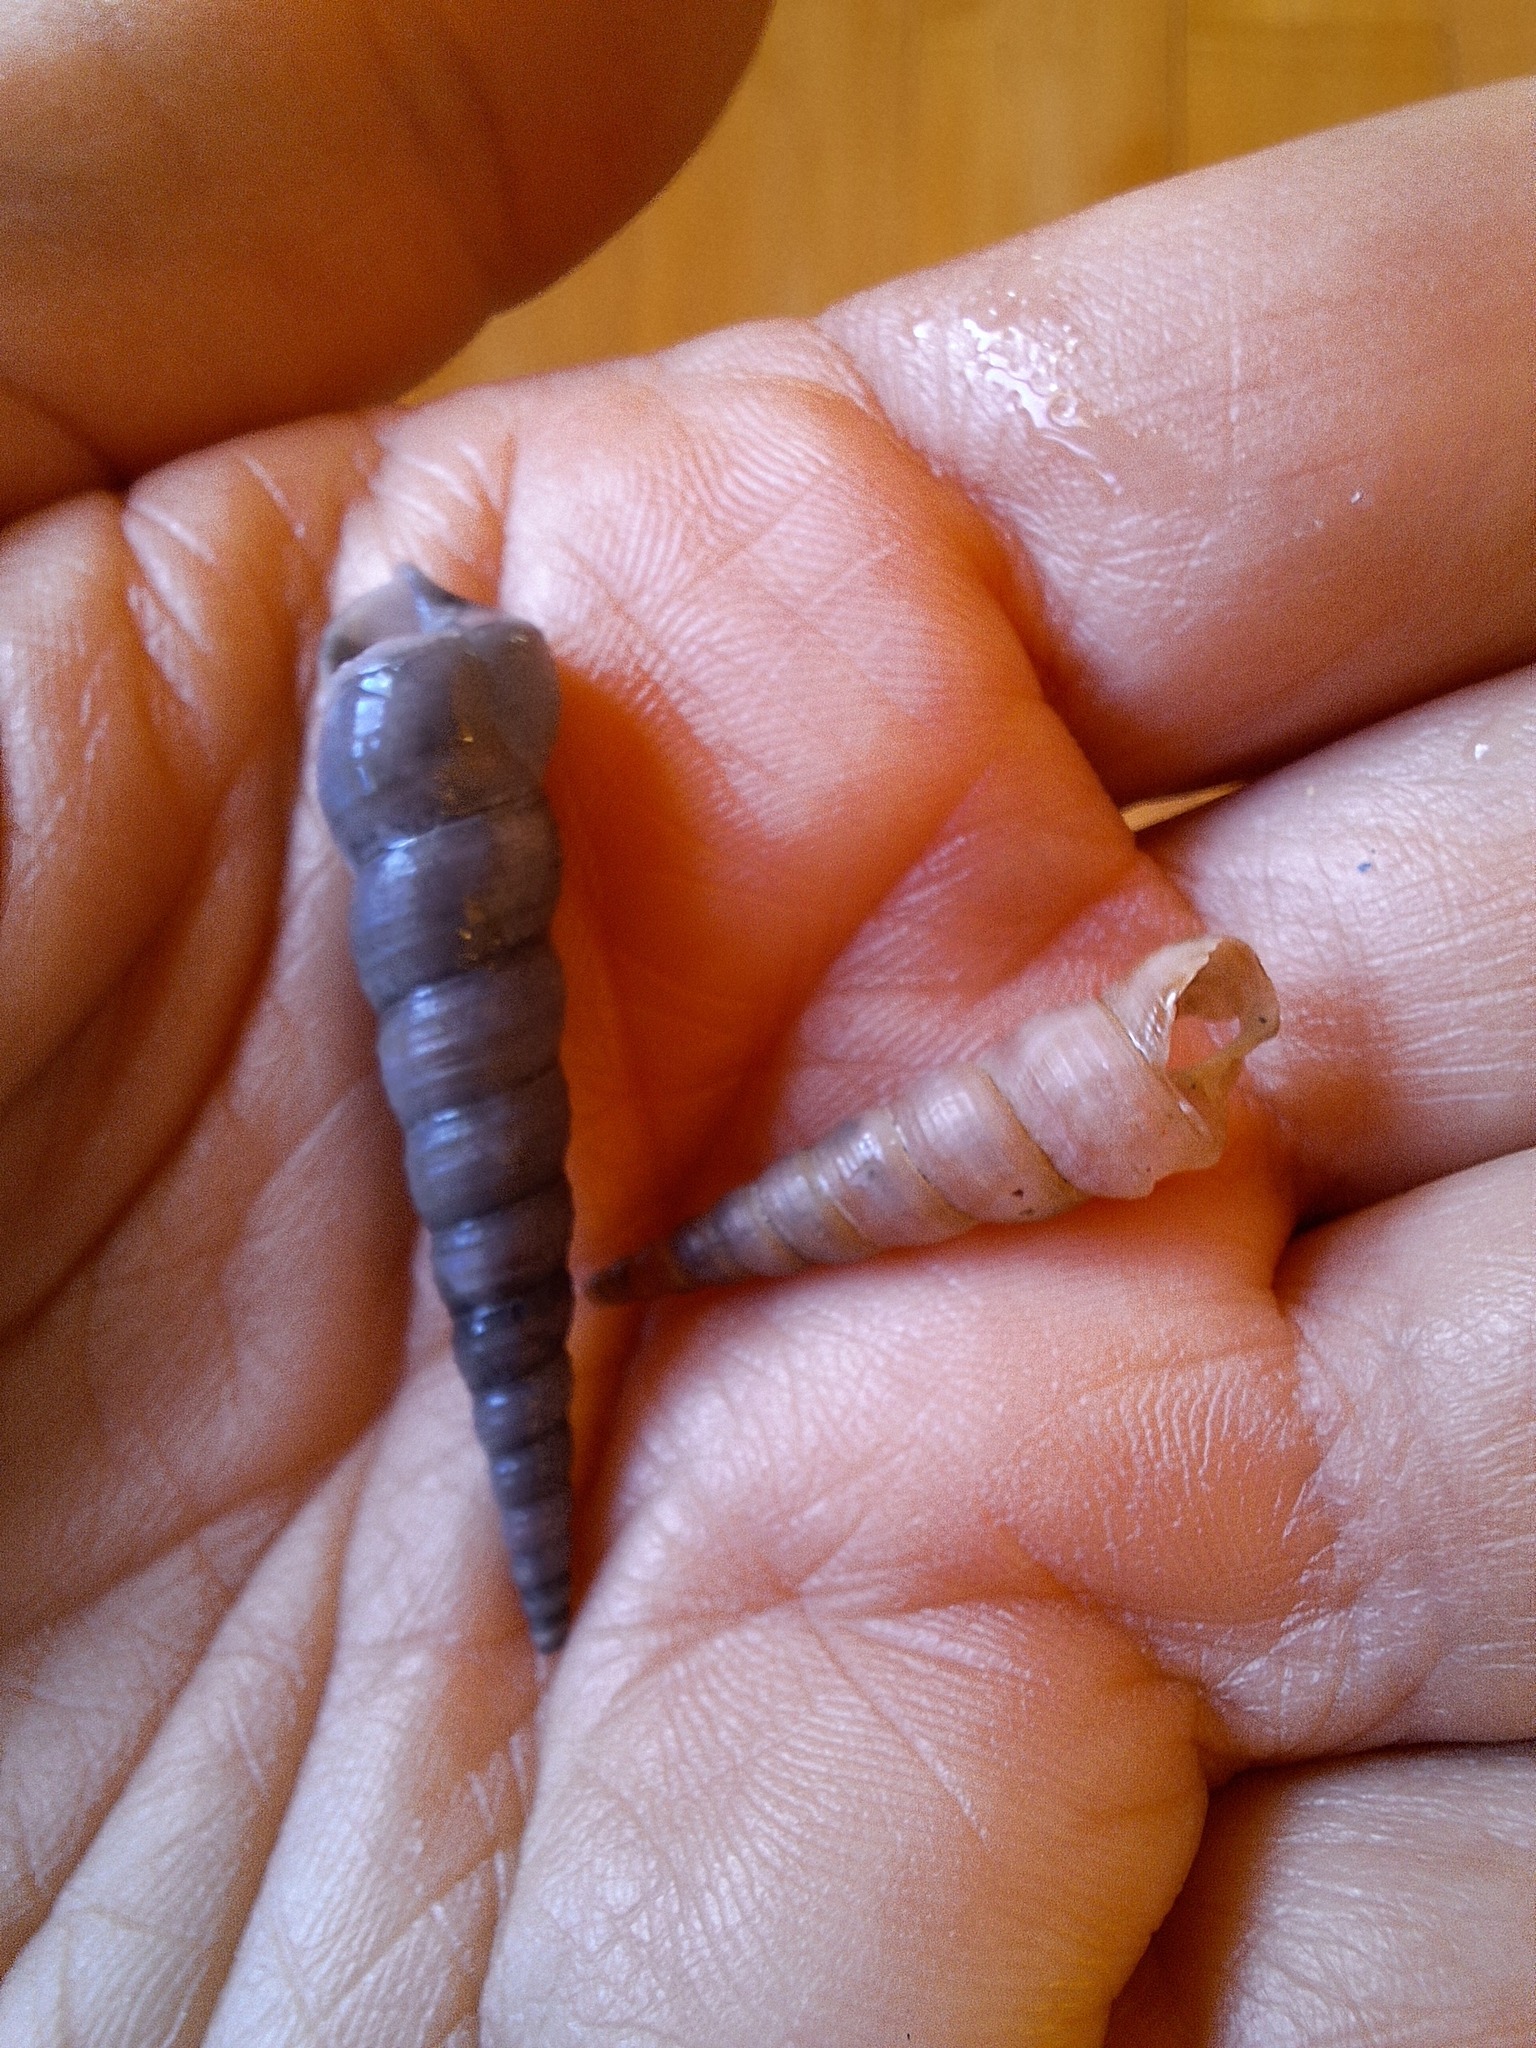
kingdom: Animalia
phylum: Mollusca
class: Gastropoda
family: Turritellidae
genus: Turritellinella
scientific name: Turritellinella tricarinata
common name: Auger shell
